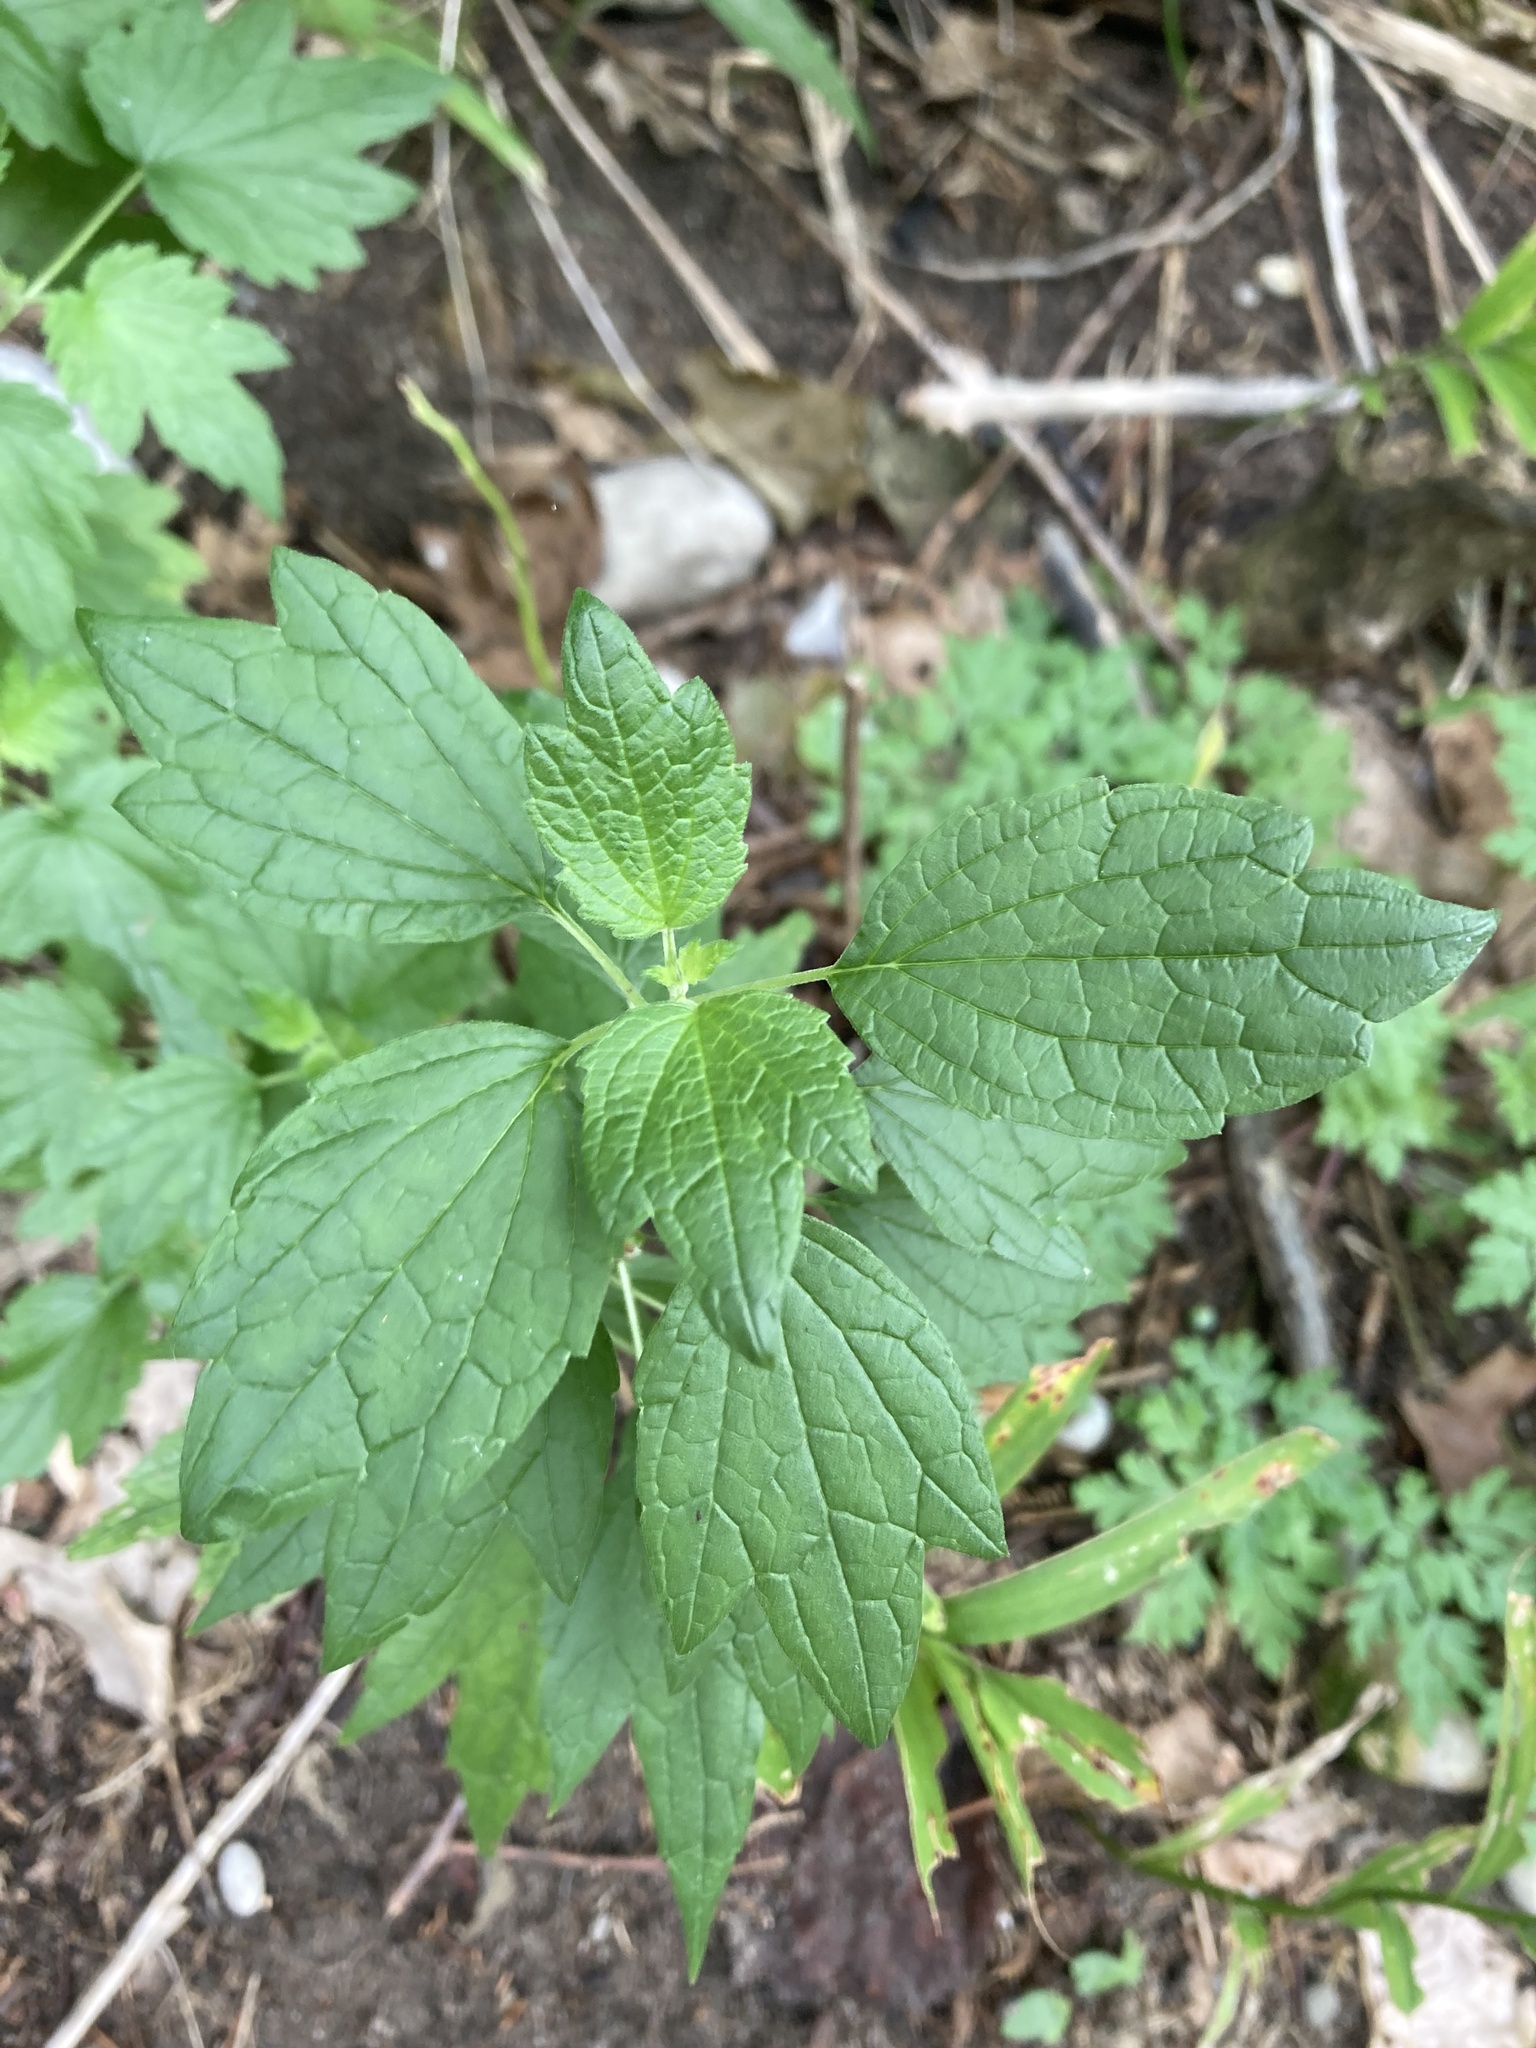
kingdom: Plantae
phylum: Tracheophyta
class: Magnoliopsida
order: Lamiales
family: Lamiaceae
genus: Leonurus
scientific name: Leonurus cardiaca
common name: Motherwort
